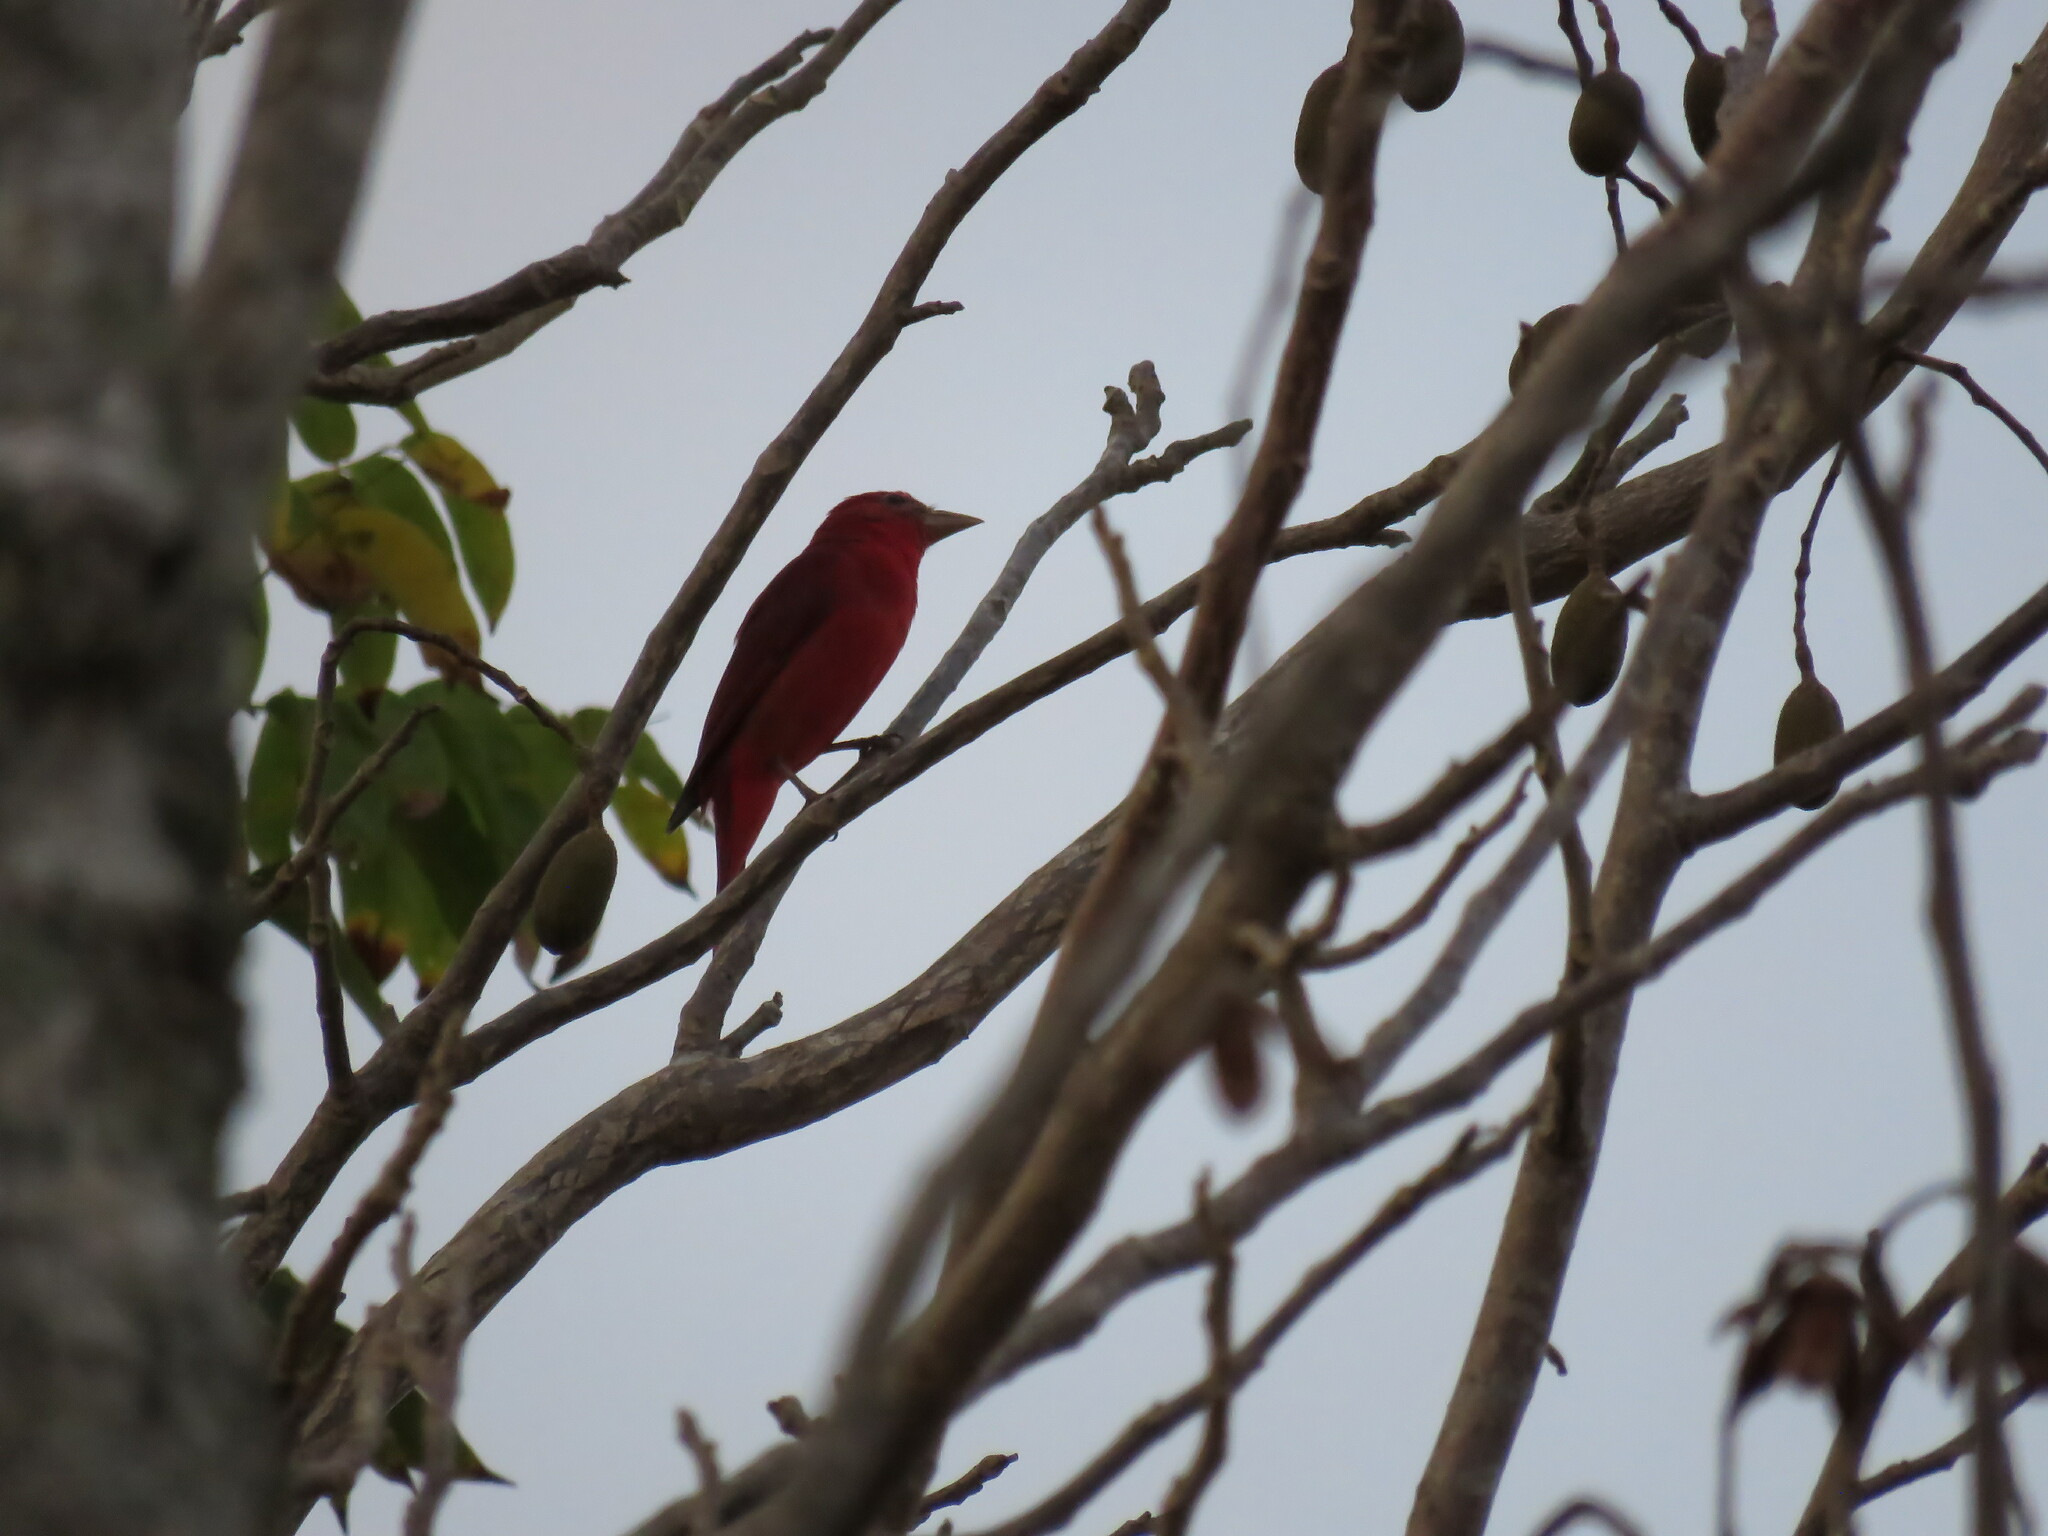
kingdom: Animalia
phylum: Chordata
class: Aves
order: Passeriformes
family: Cardinalidae
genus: Piranga
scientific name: Piranga rubra
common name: Summer tanager
